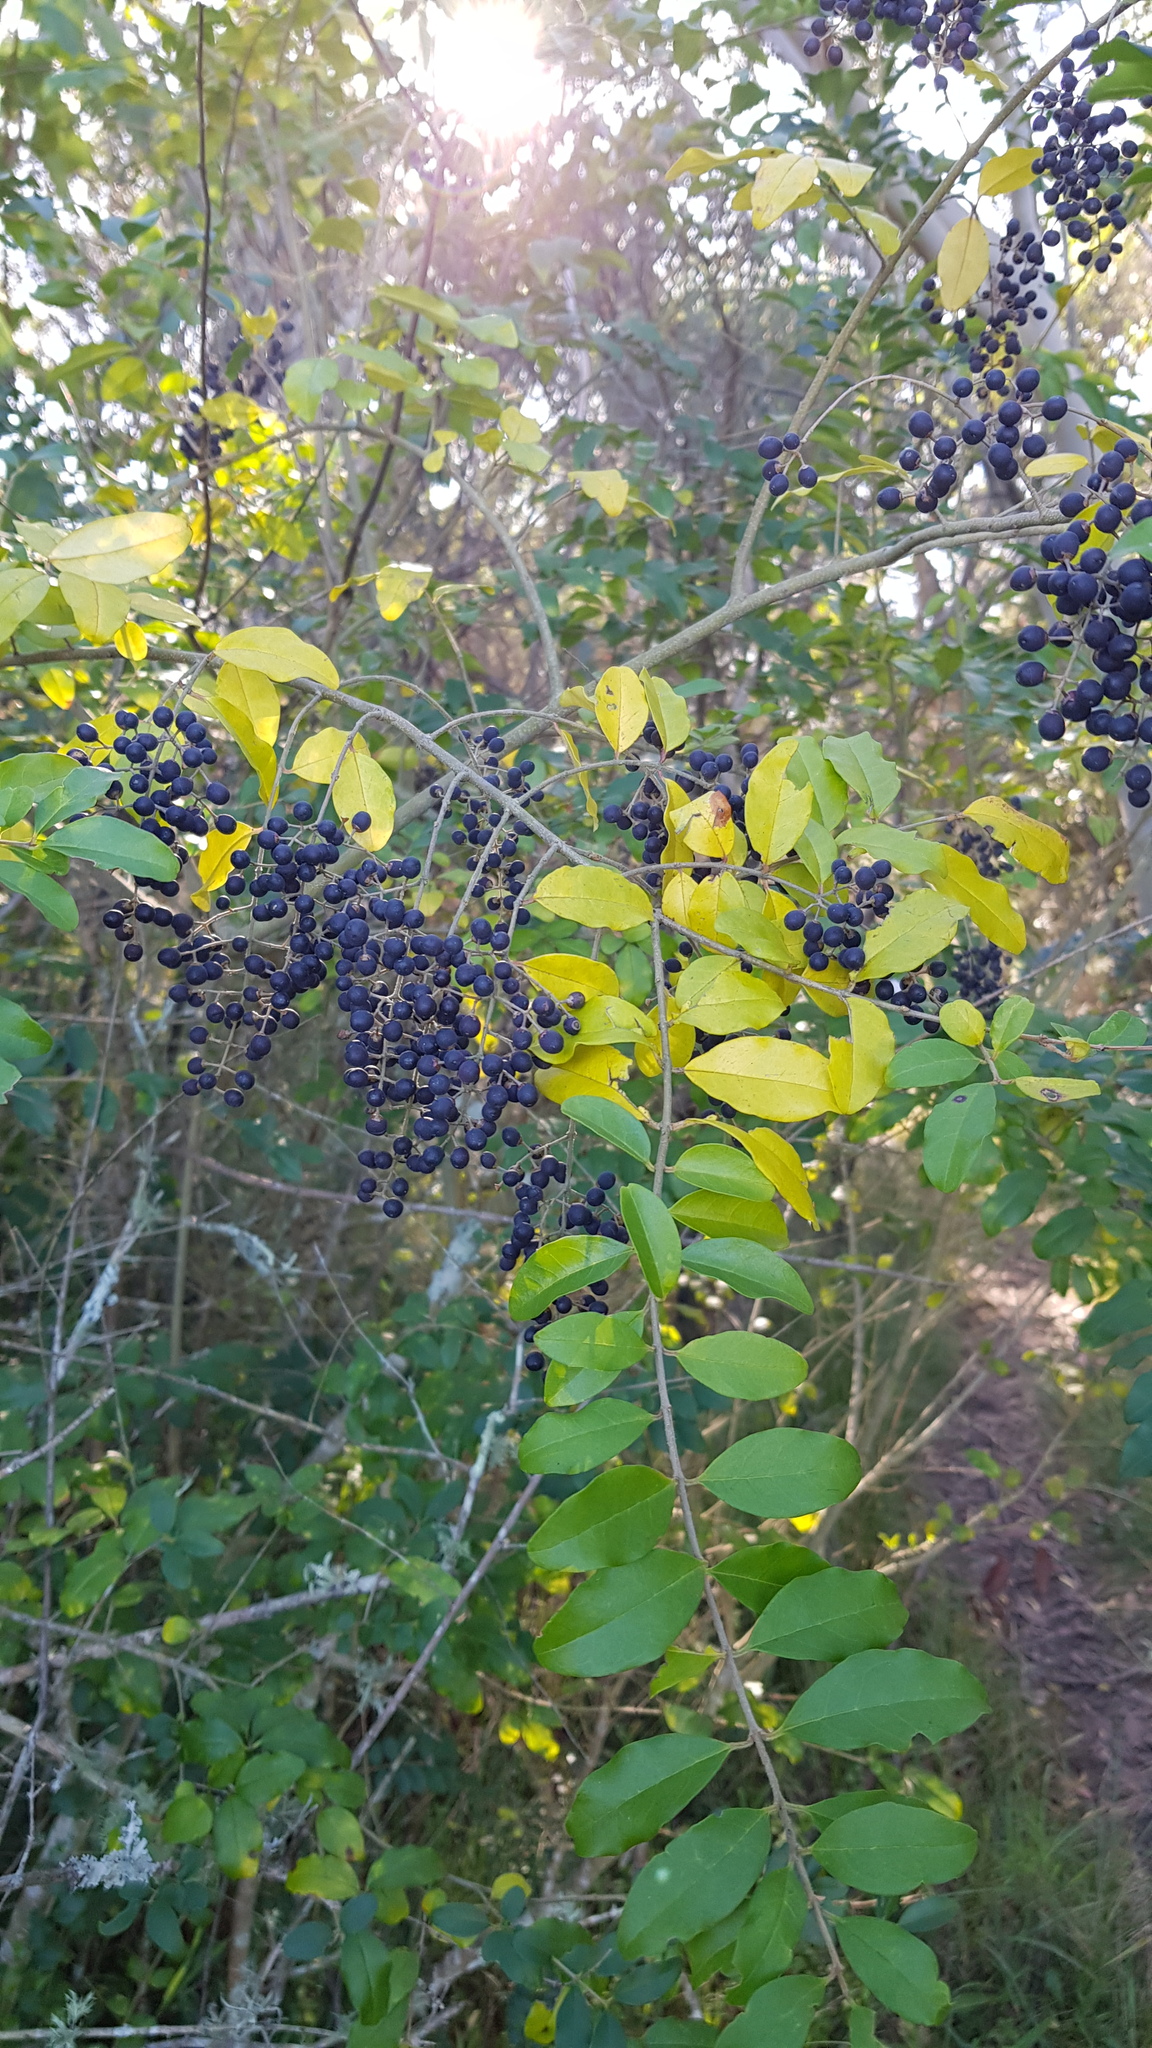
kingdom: Plantae
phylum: Tracheophyta
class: Magnoliopsida
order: Lamiales
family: Oleaceae
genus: Ligustrum
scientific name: Ligustrum sinense
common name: Chinese privet
